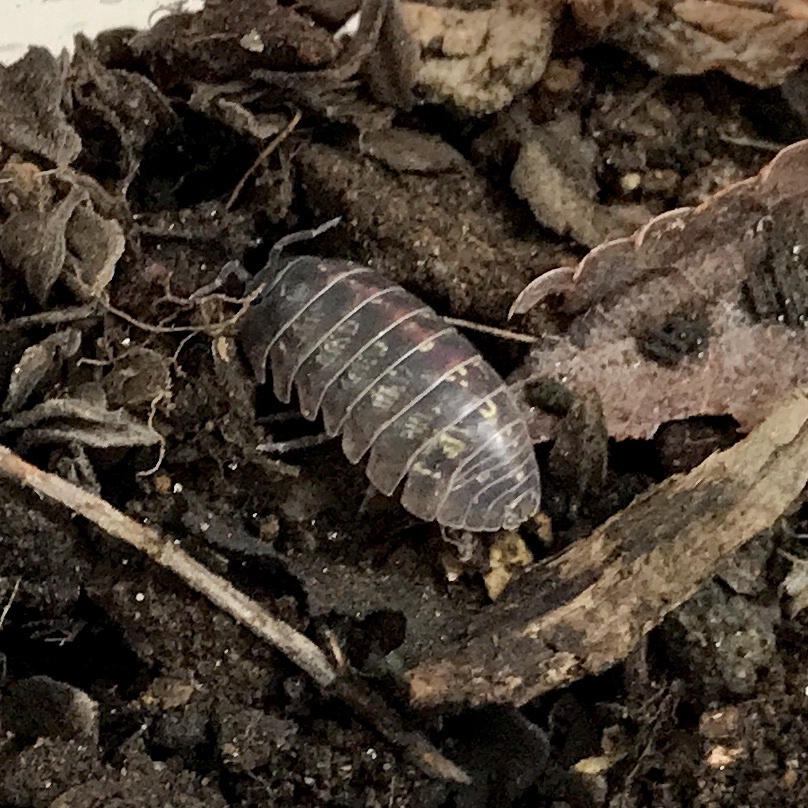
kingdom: Animalia
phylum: Arthropoda
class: Malacostraca
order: Isopoda
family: Armadillidiidae
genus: Armadillidium
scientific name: Armadillidium vulgare
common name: Common pill woodlouse
